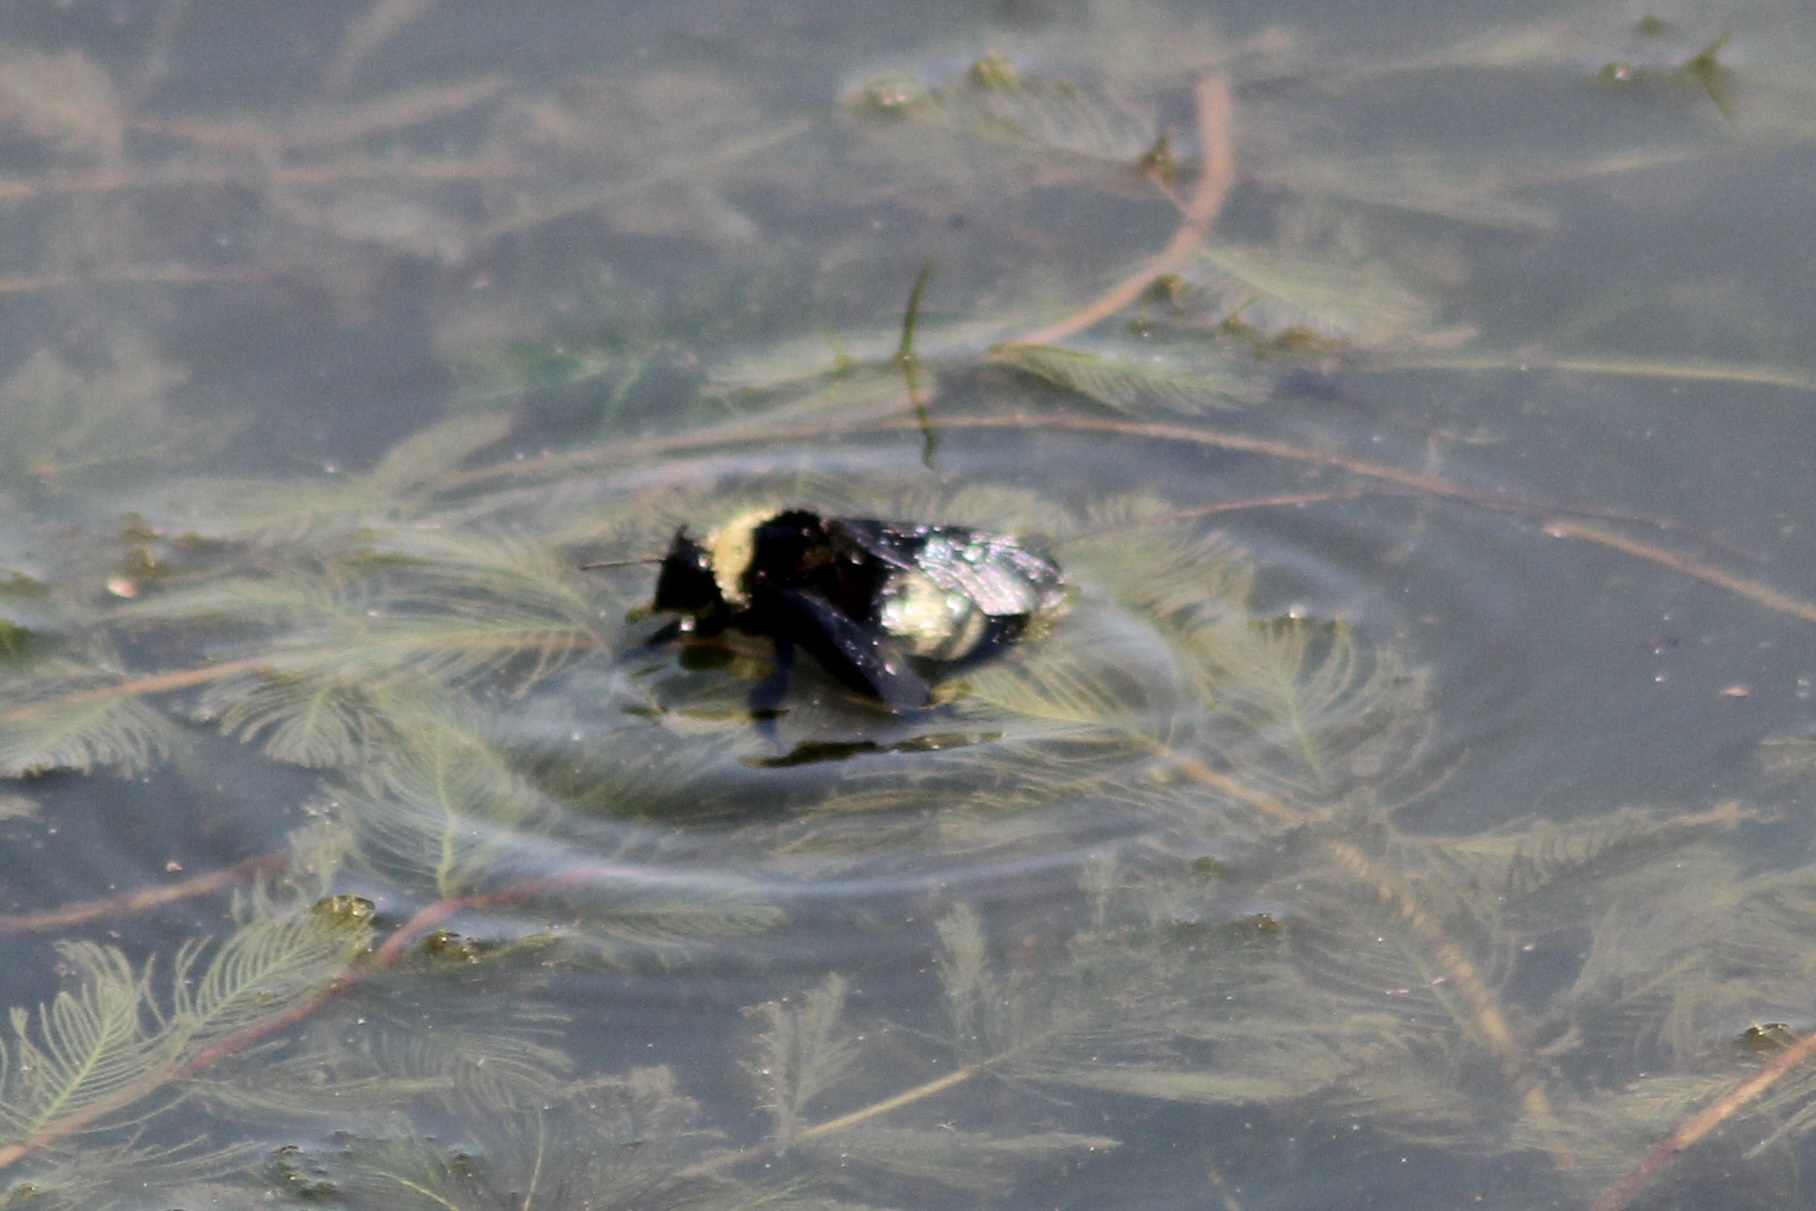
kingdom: Animalia
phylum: Arthropoda
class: Insecta
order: Hymenoptera
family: Apidae
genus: Bombus
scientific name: Bombus auricomus
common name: Black and gold bumble bee
